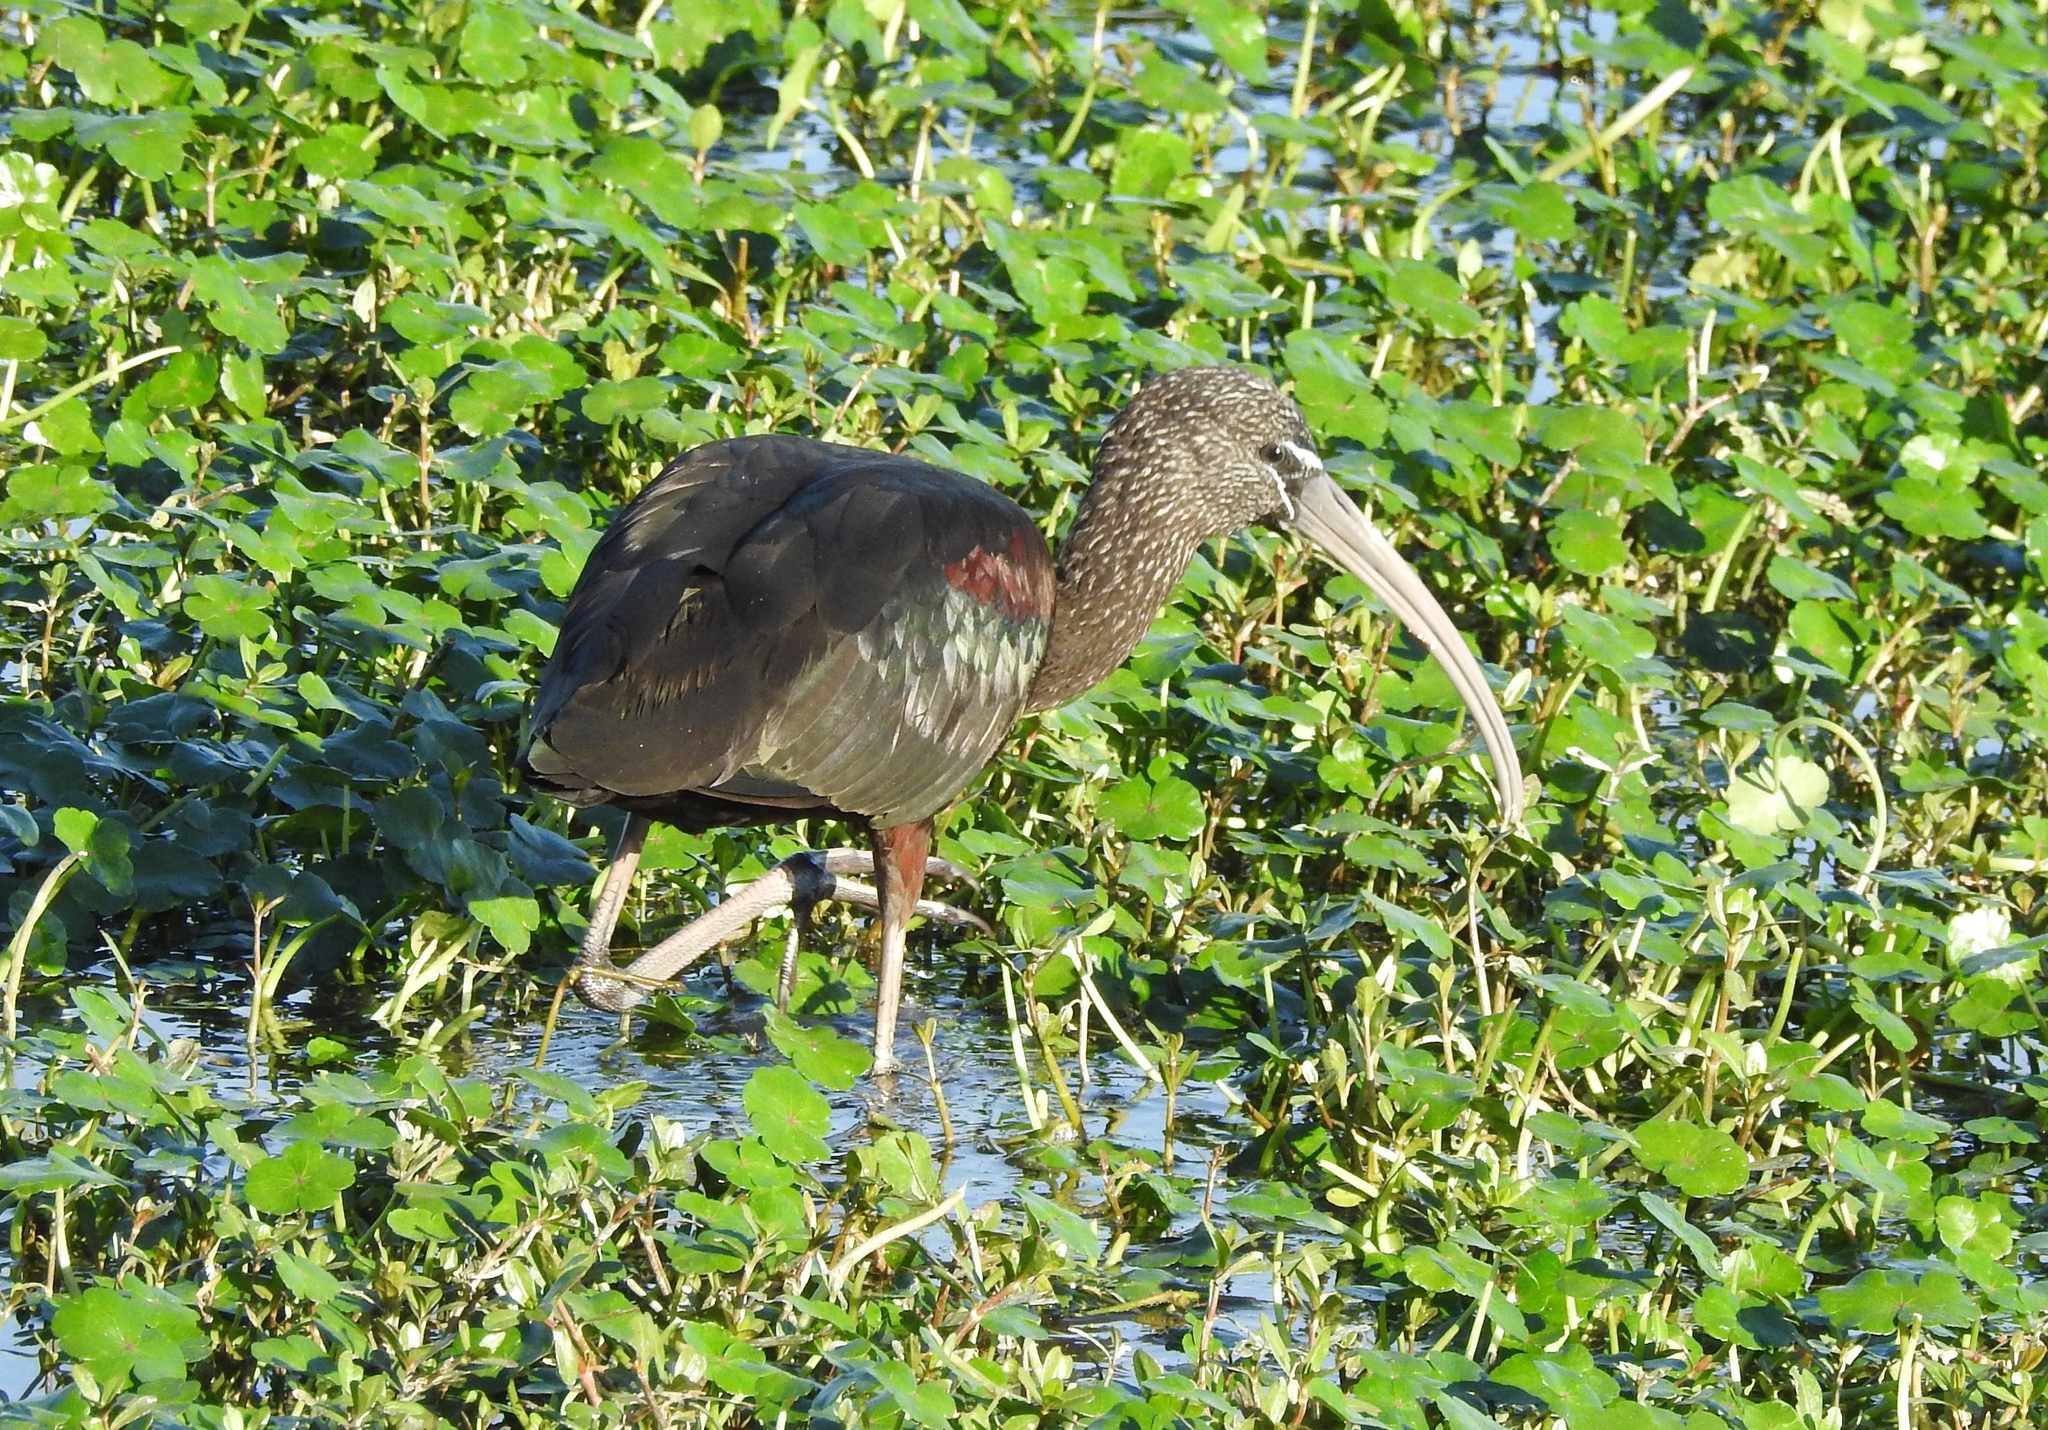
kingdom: Animalia
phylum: Chordata
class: Aves
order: Pelecaniformes
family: Threskiornithidae
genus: Plegadis
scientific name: Plegadis falcinellus
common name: Glossy ibis
